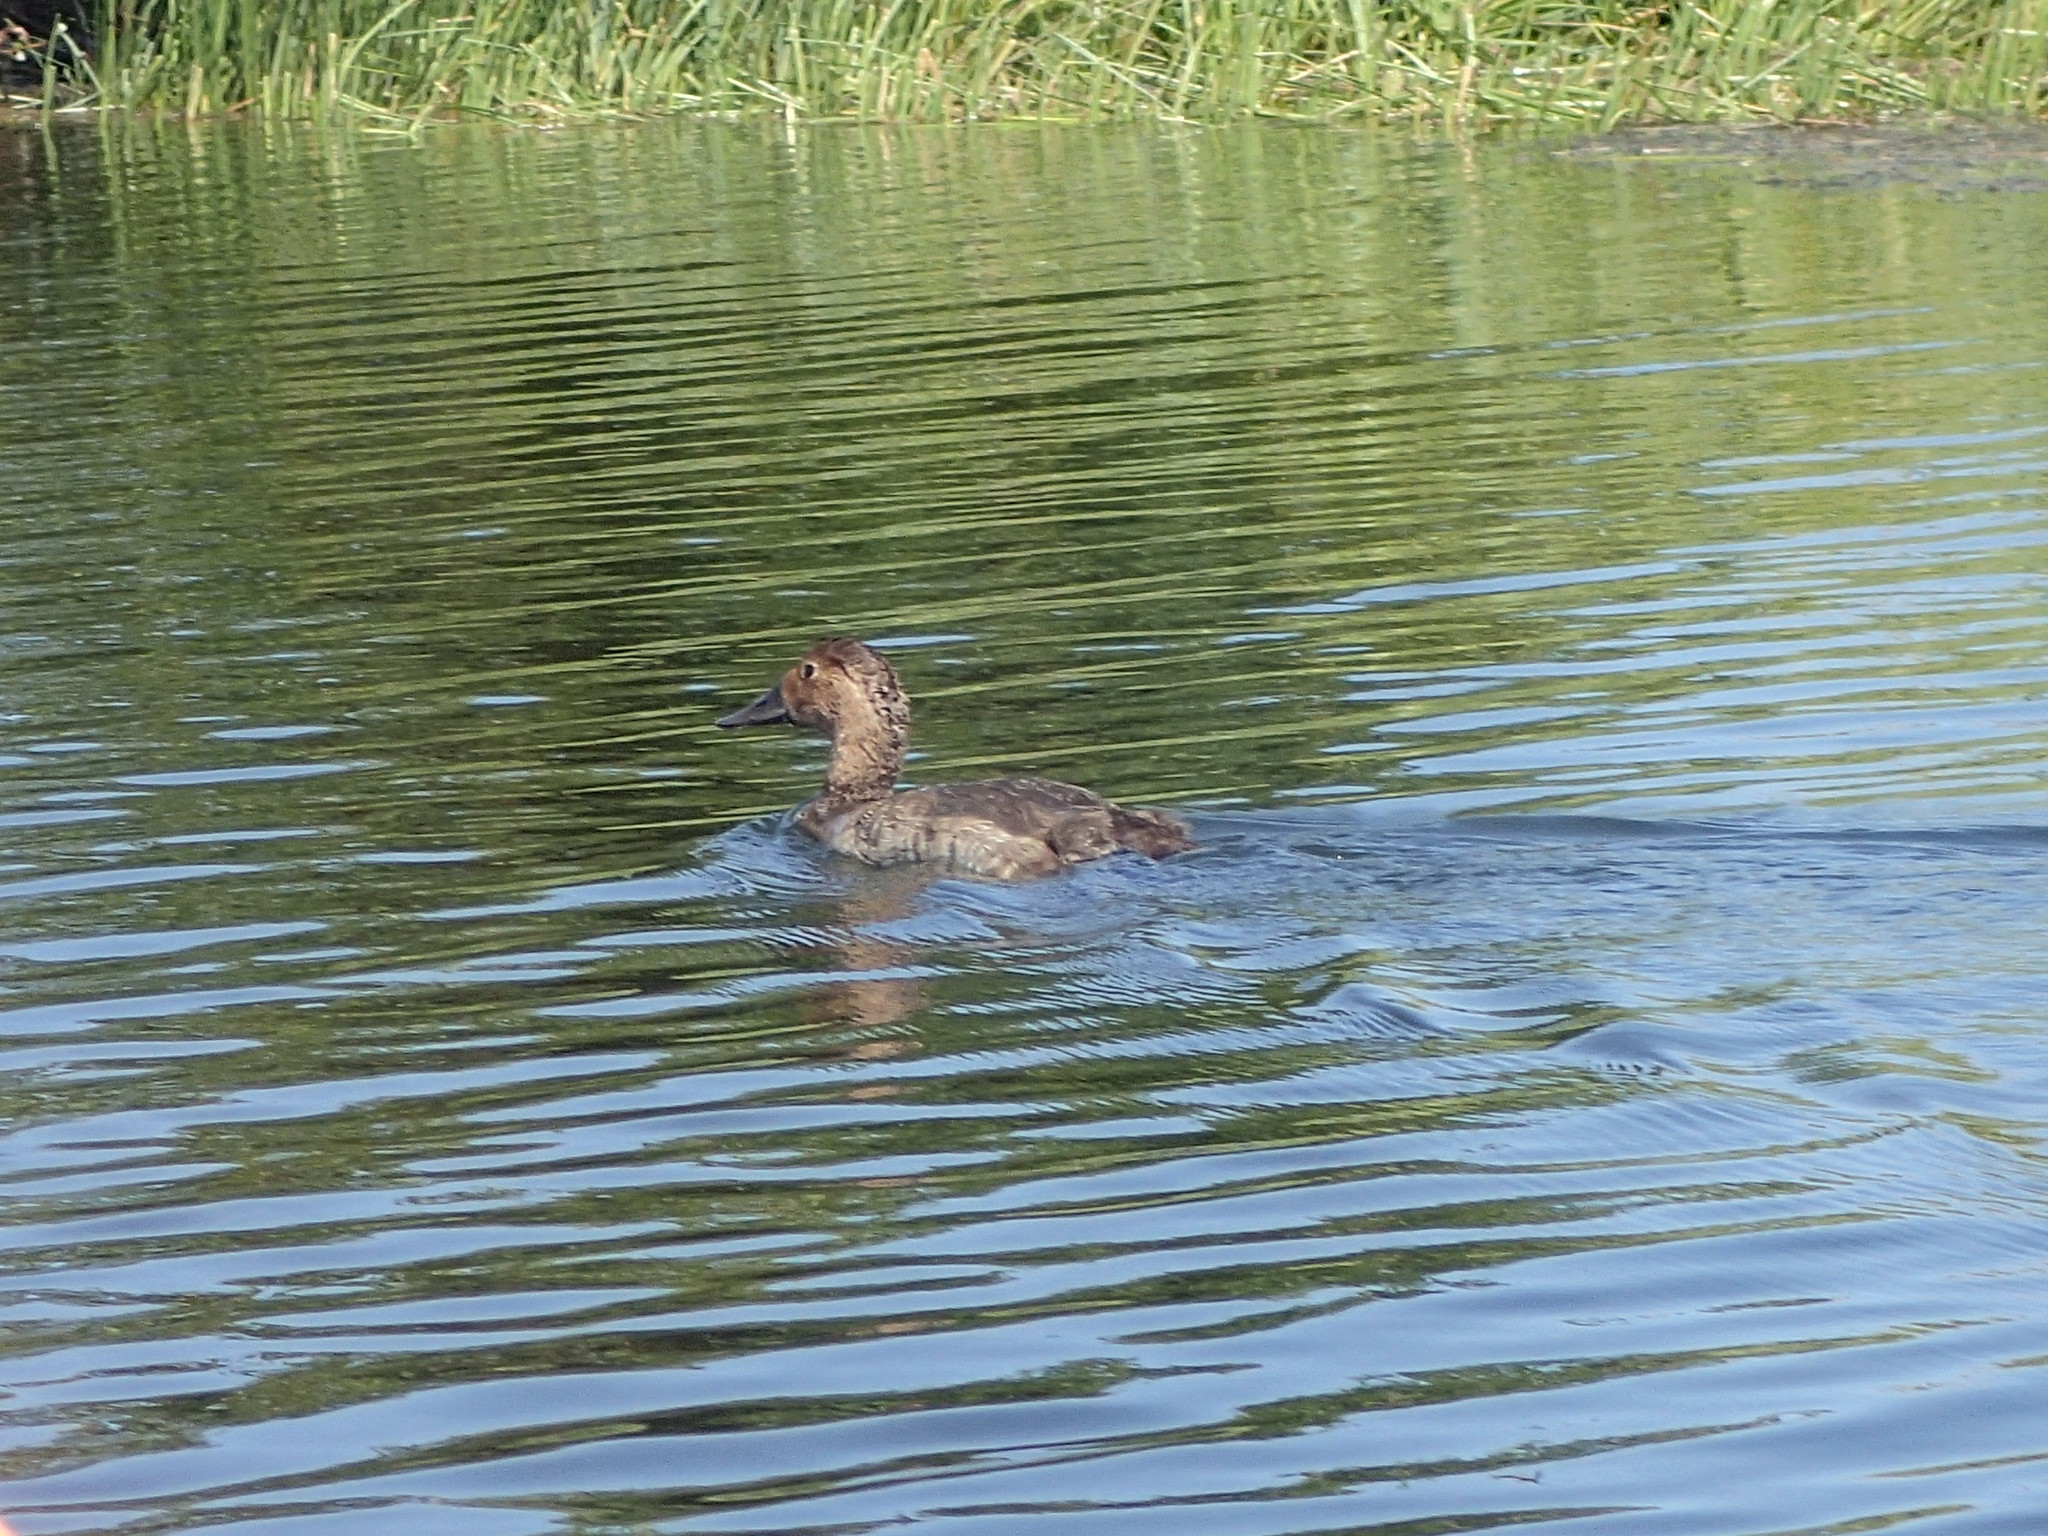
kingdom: Animalia
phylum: Chordata
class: Aves
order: Anseriformes
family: Anatidae
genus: Aythya
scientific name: Aythya valisineria
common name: Canvasback
